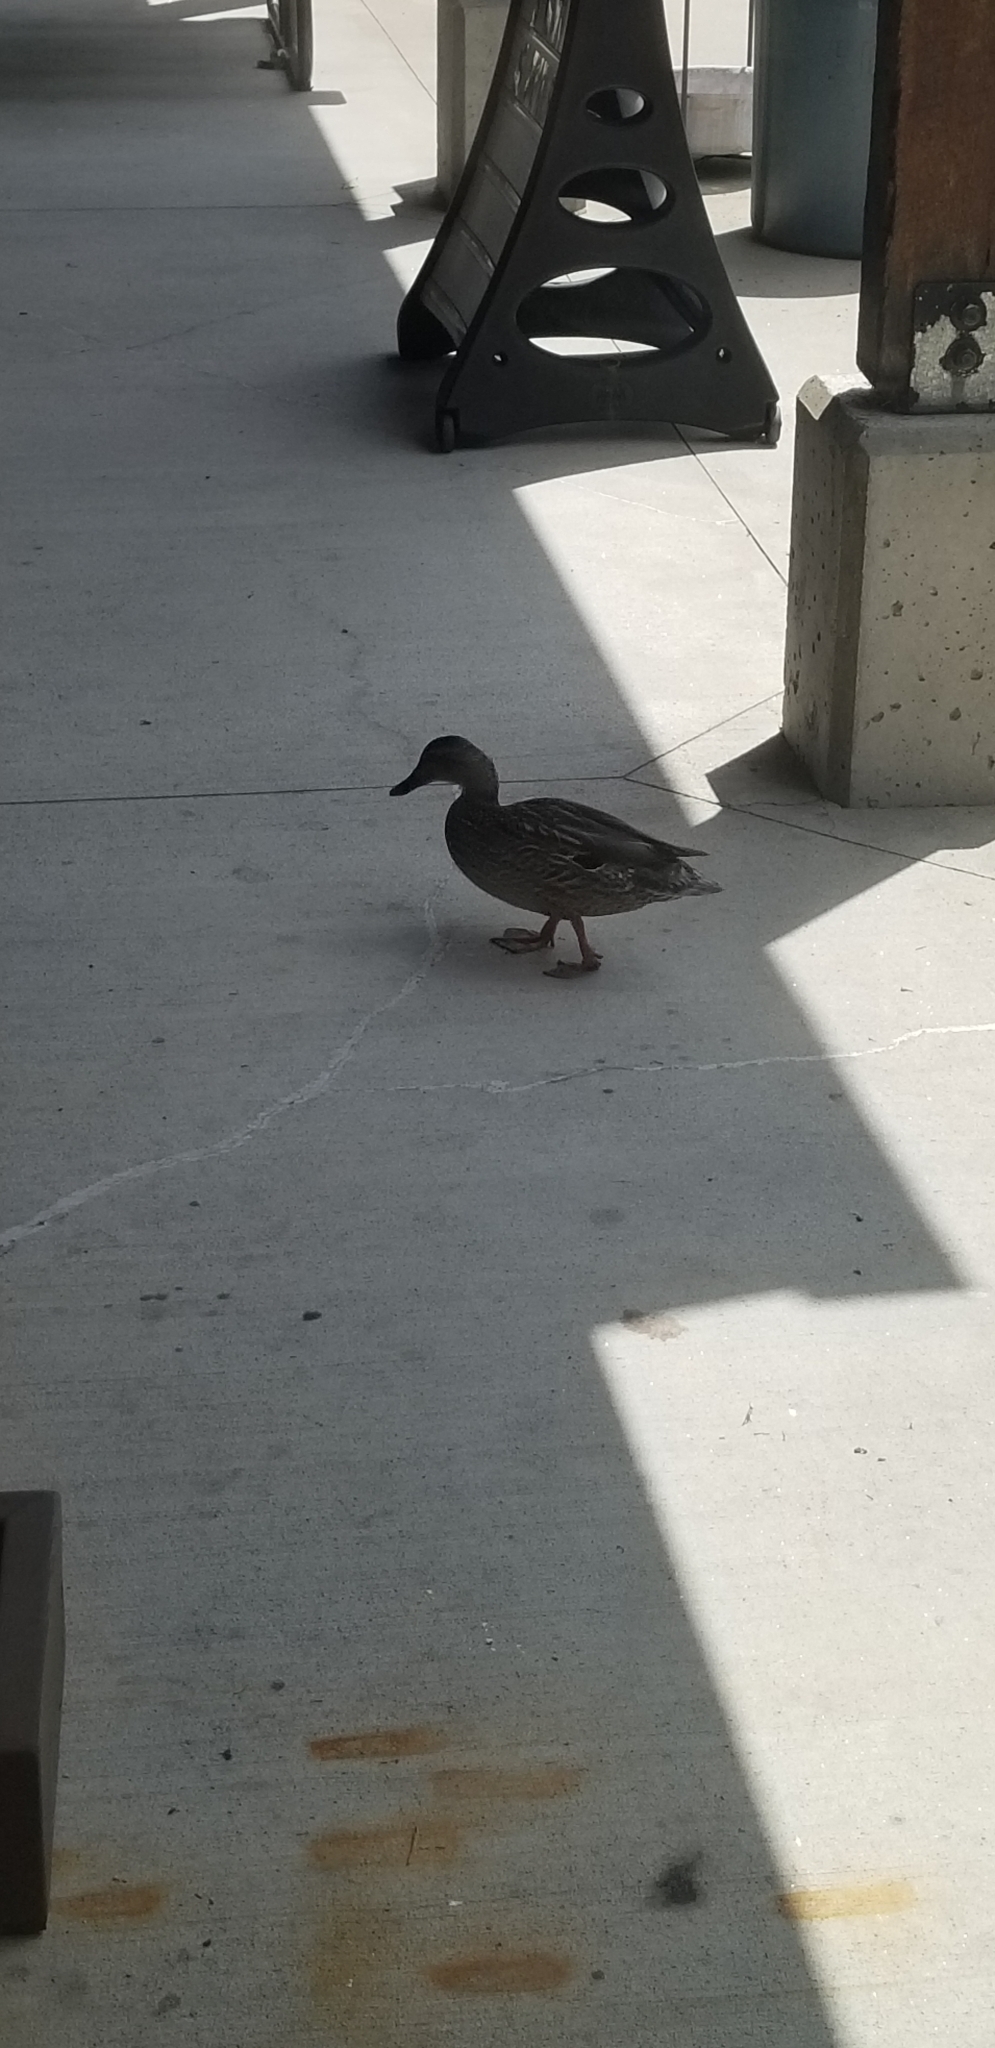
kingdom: Animalia
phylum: Chordata
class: Aves
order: Anseriformes
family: Anatidae
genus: Anas
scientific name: Anas platyrhynchos
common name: Mallard
